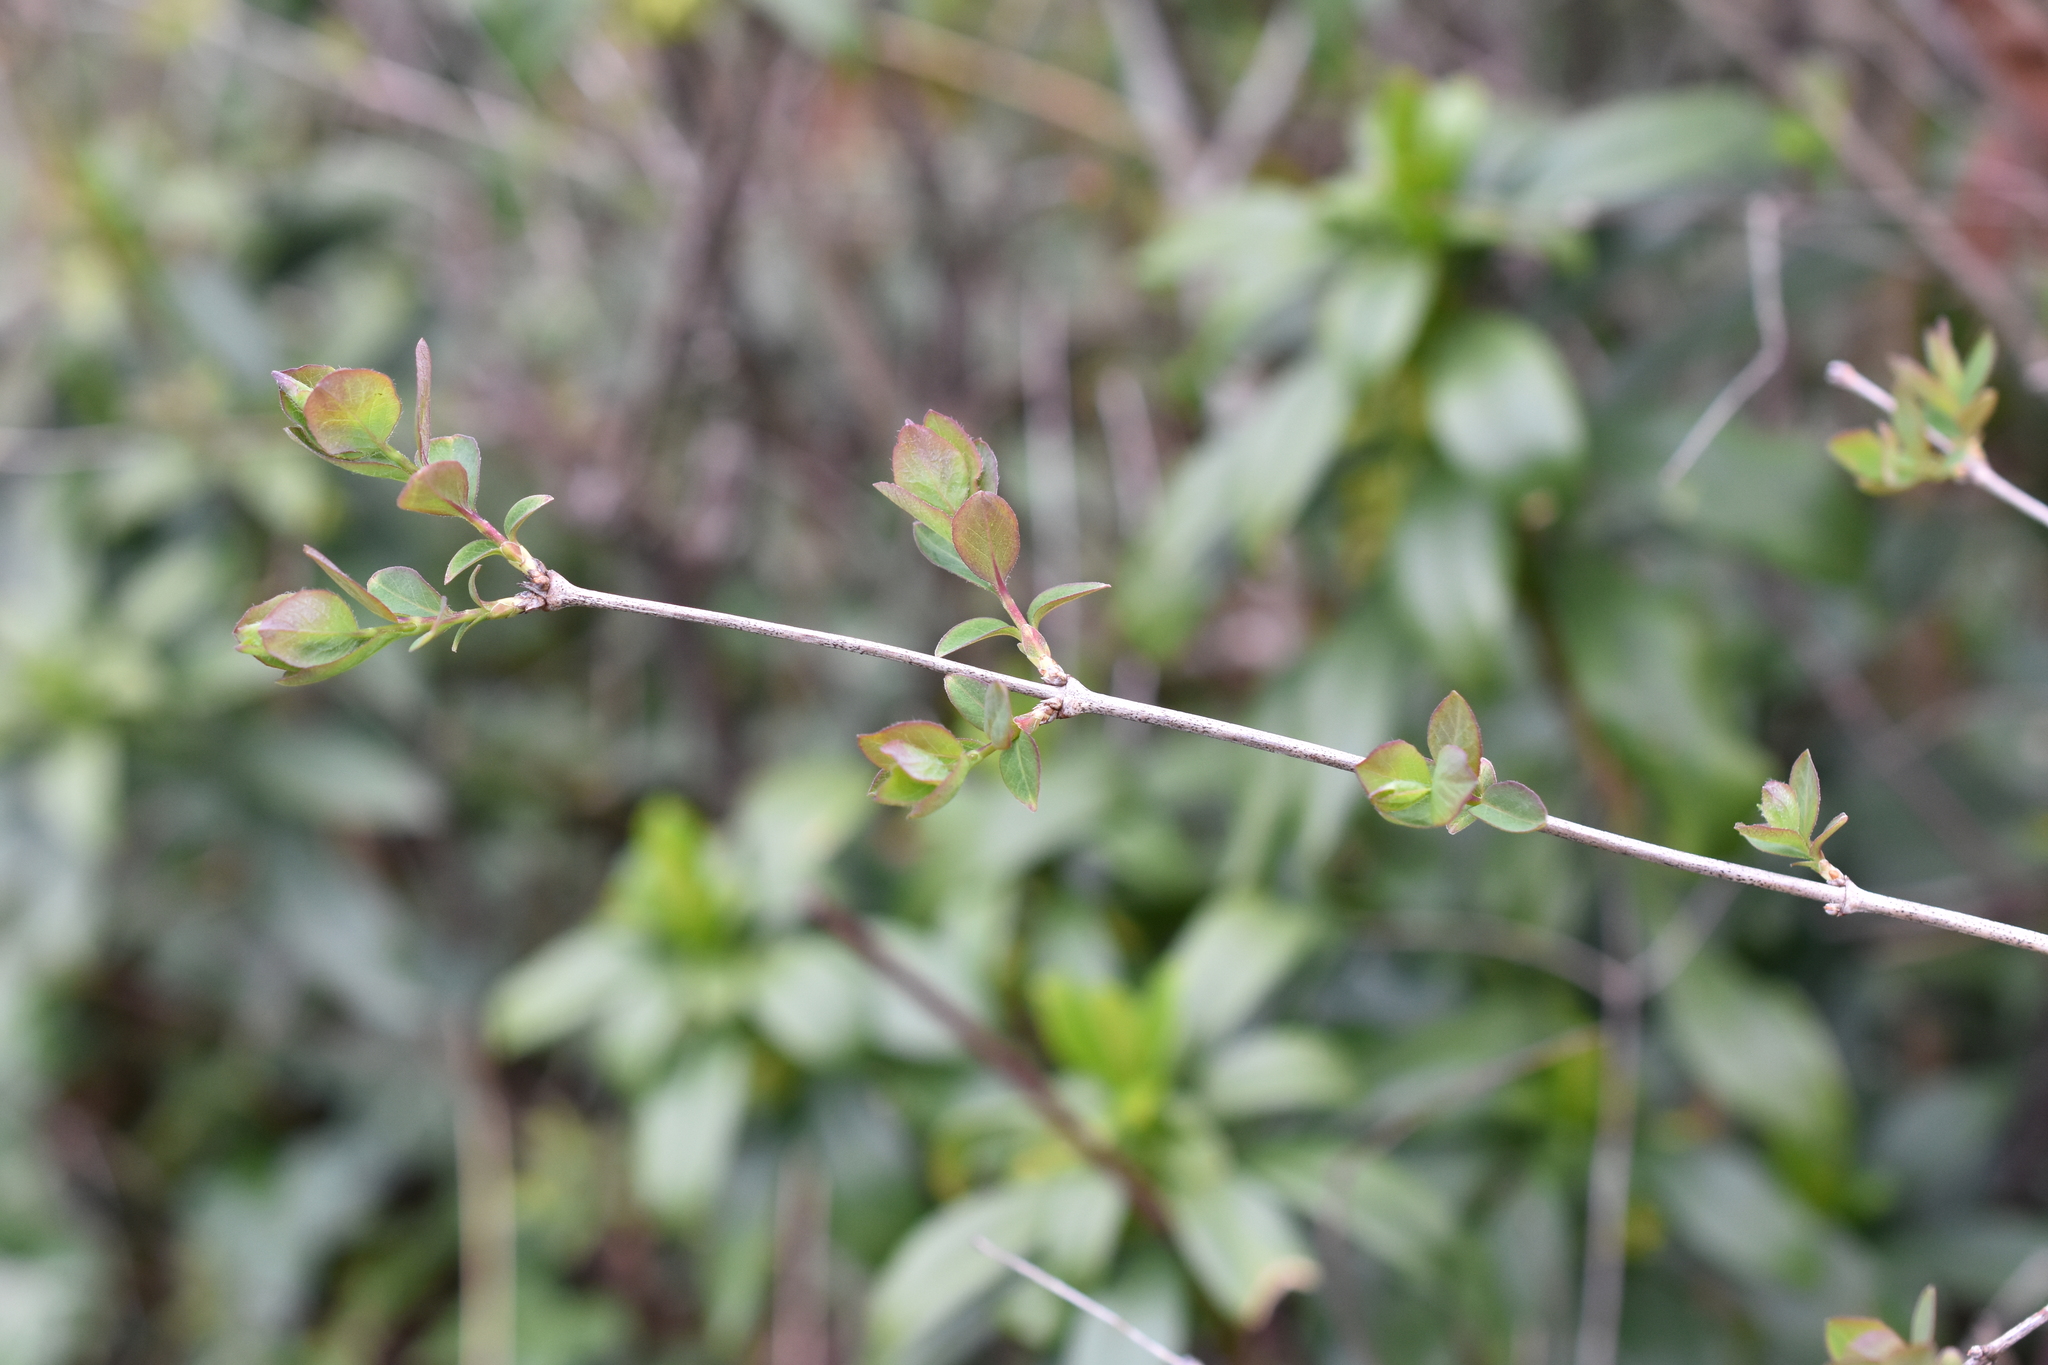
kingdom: Plantae
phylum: Tracheophyta
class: Magnoliopsida
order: Dipsacales
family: Caprifoliaceae
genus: Symphoricarpos
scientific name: Symphoricarpos albus
